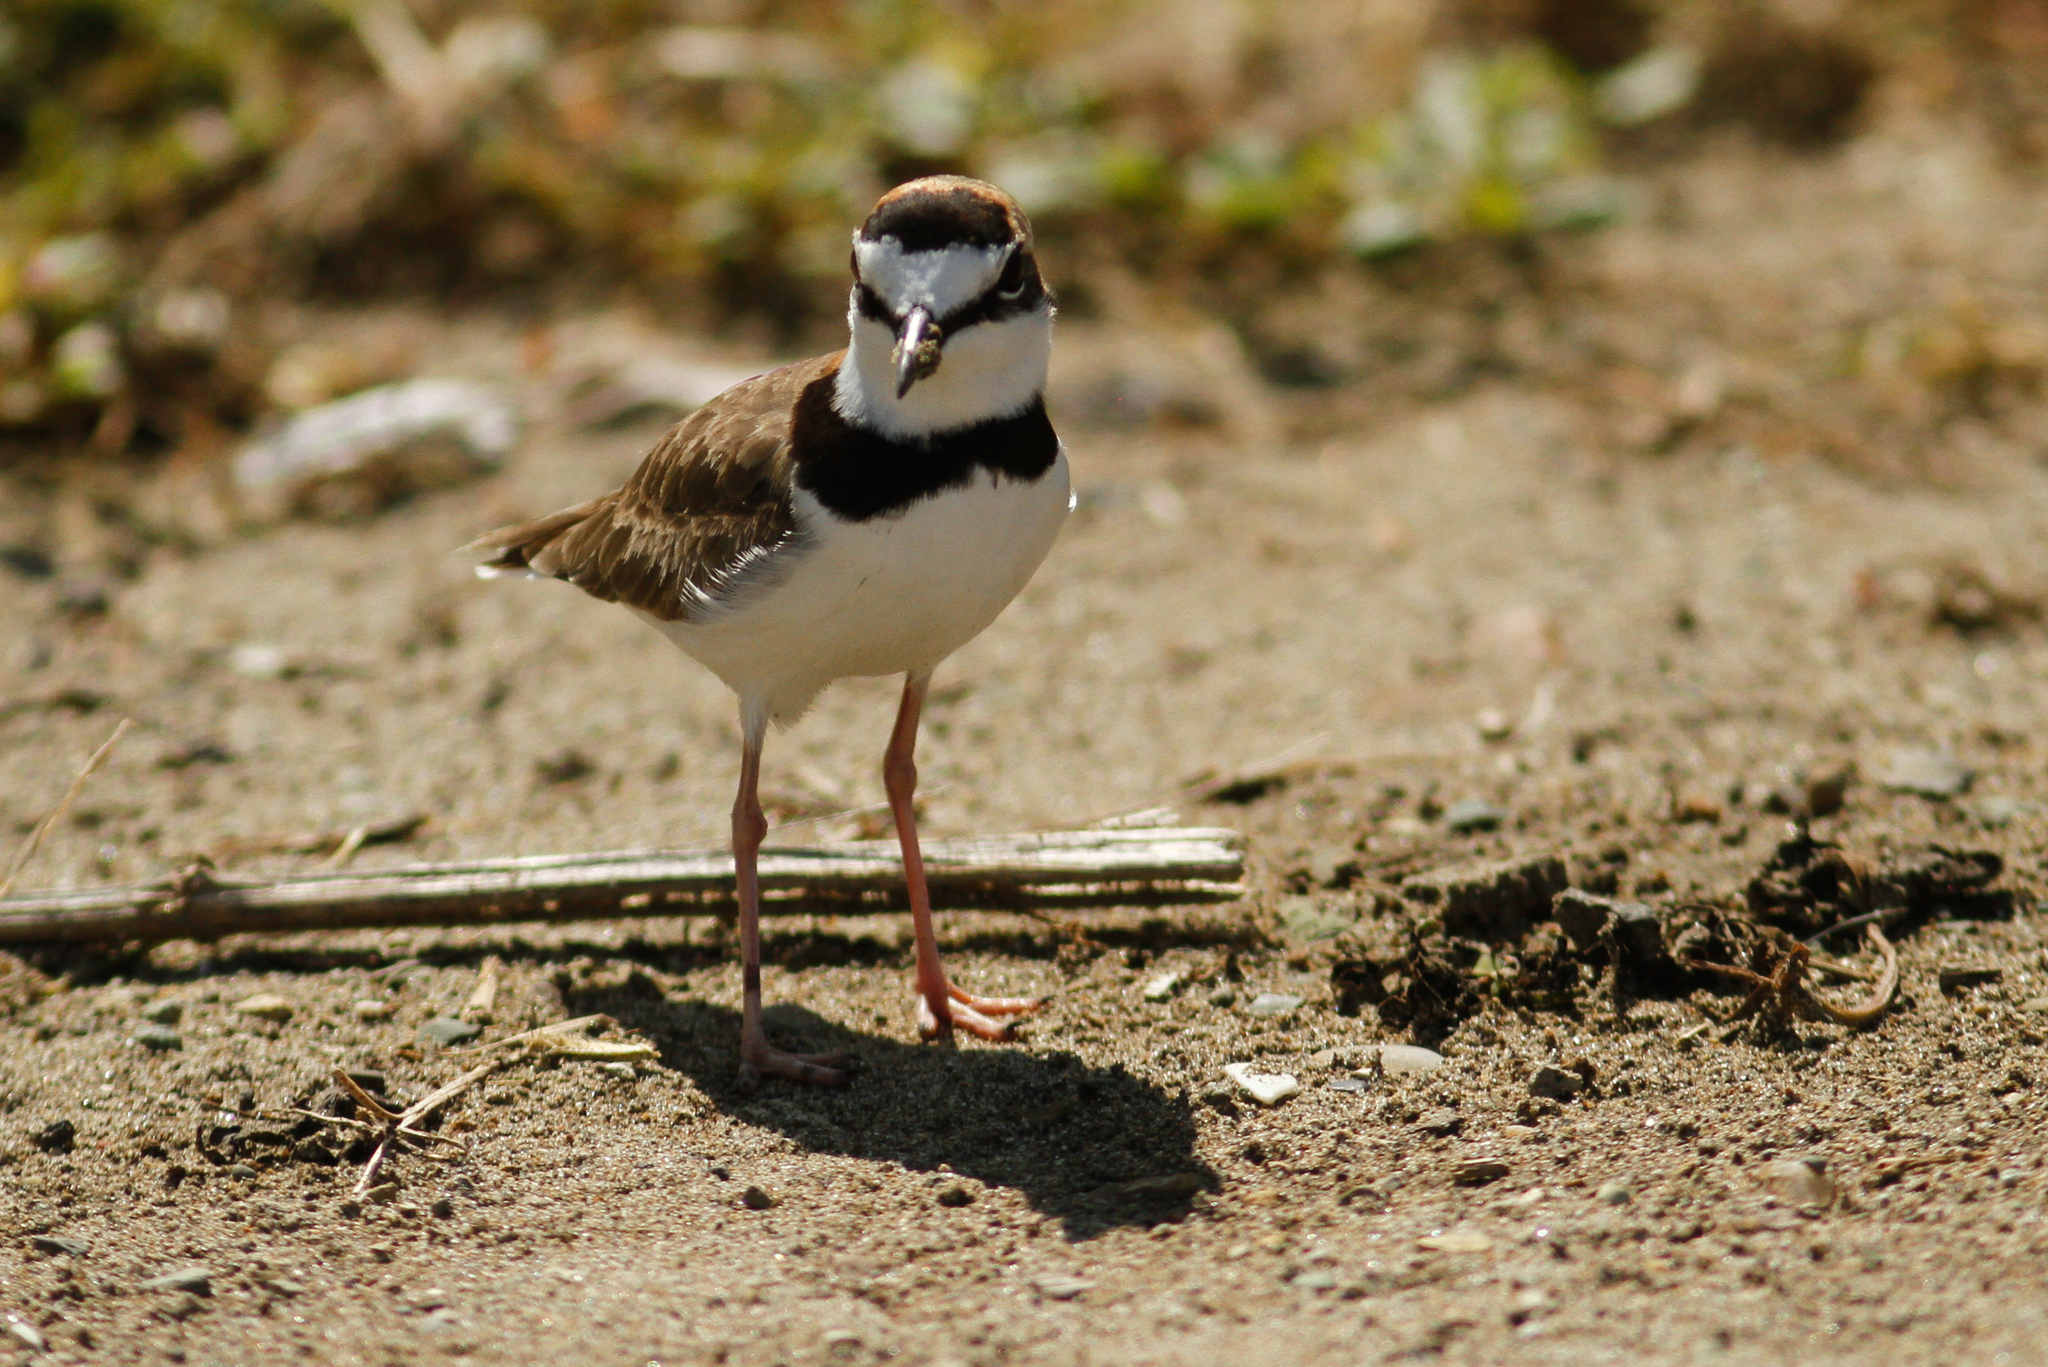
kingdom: Animalia
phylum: Chordata
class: Aves
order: Charadriiformes
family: Charadriidae
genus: Anarhynchus
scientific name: Anarhynchus
